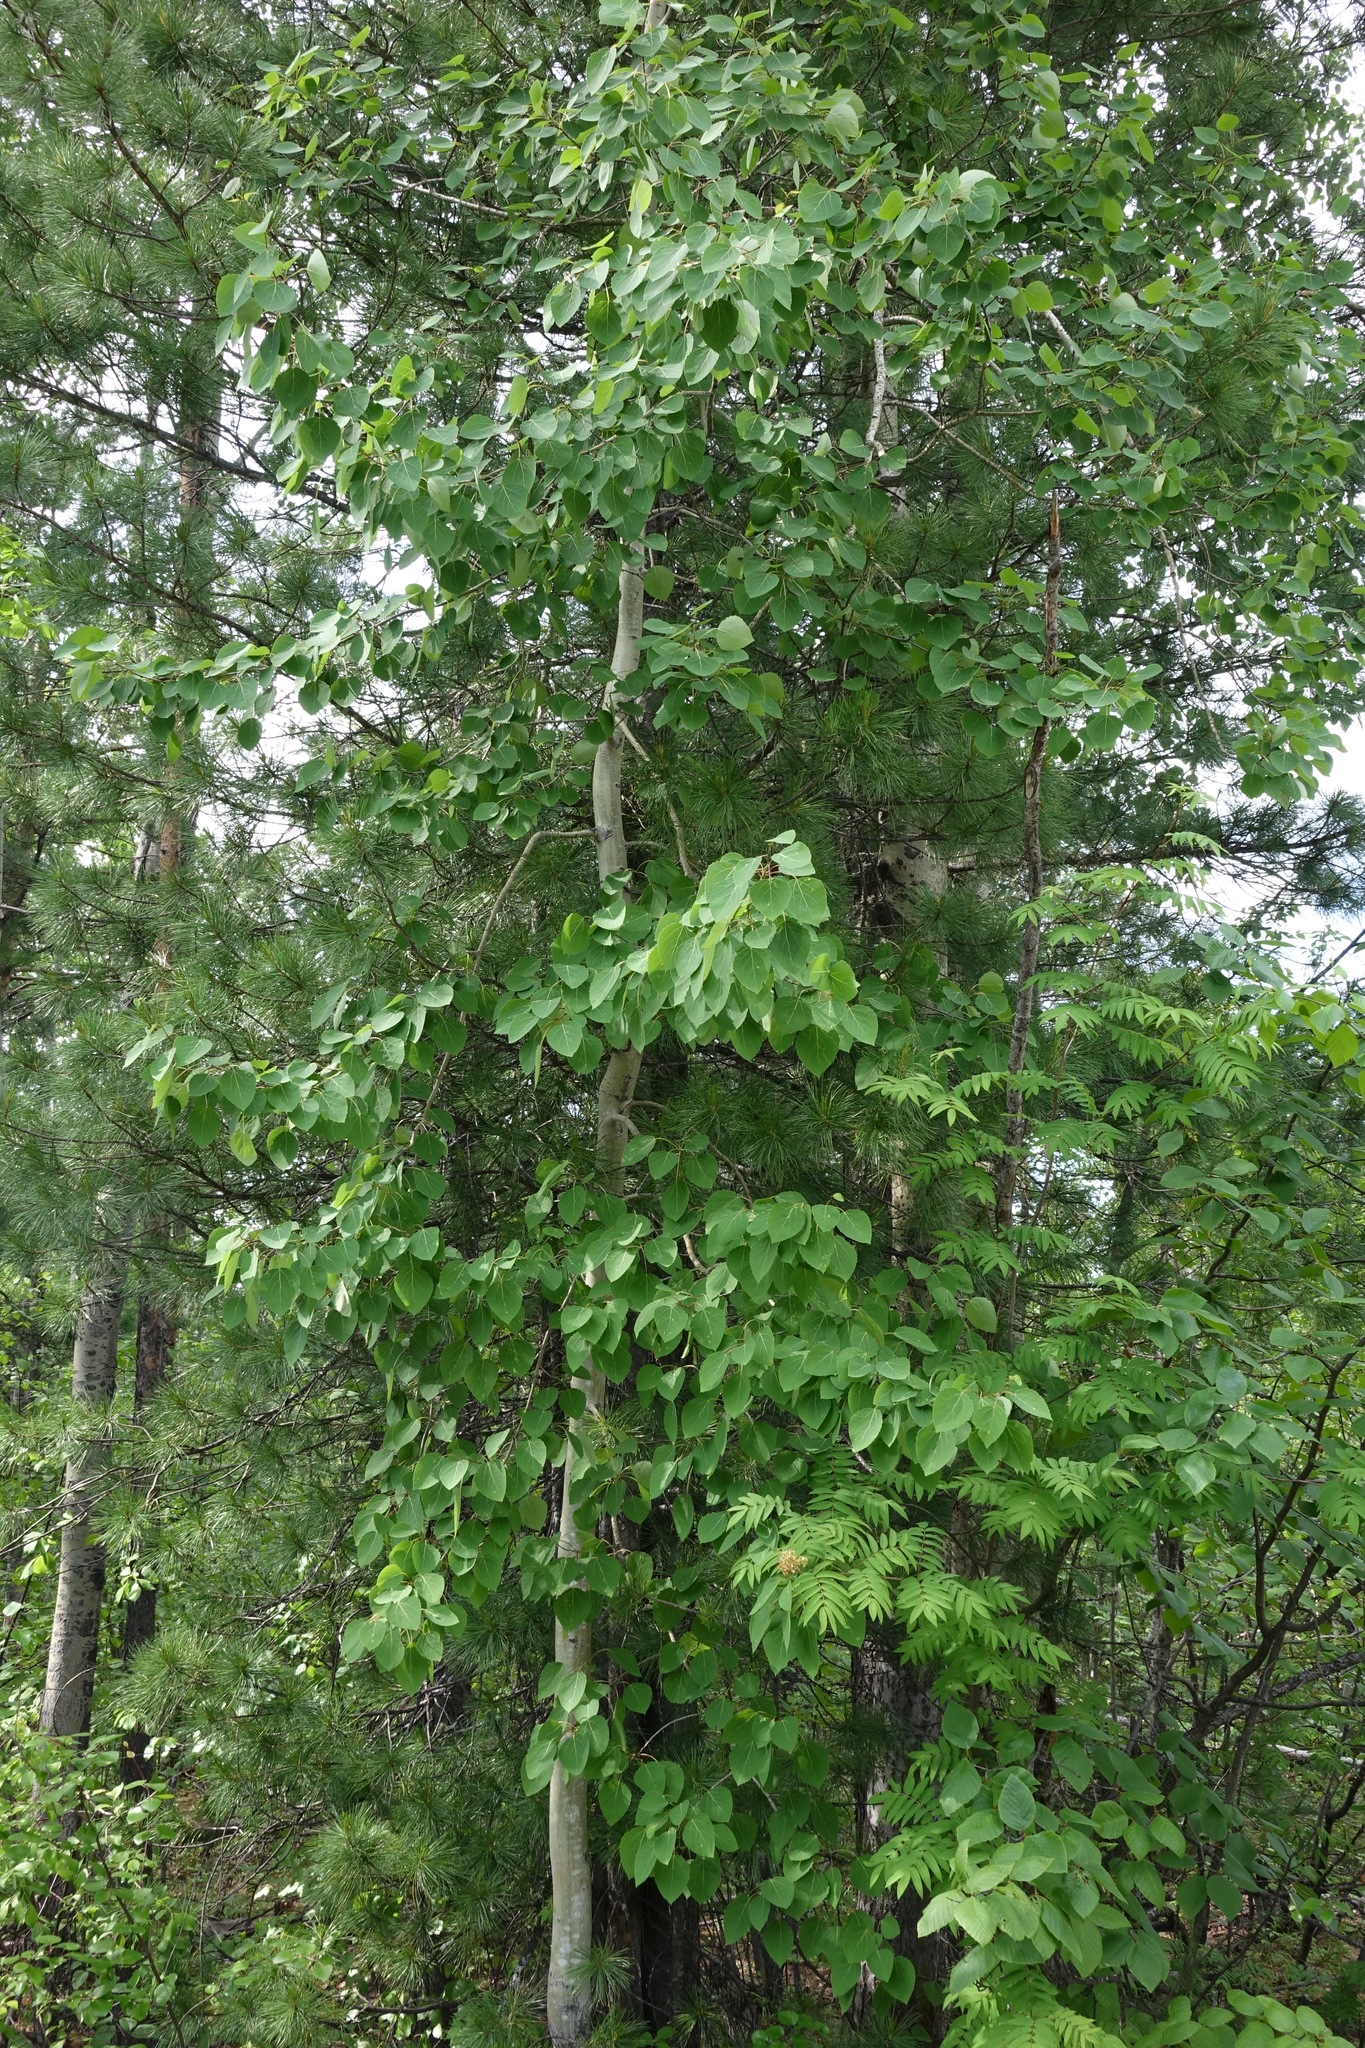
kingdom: Plantae
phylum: Tracheophyta
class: Magnoliopsida
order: Malpighiales
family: Salicaceae
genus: Populus
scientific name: Populus tremula
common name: European aspen
